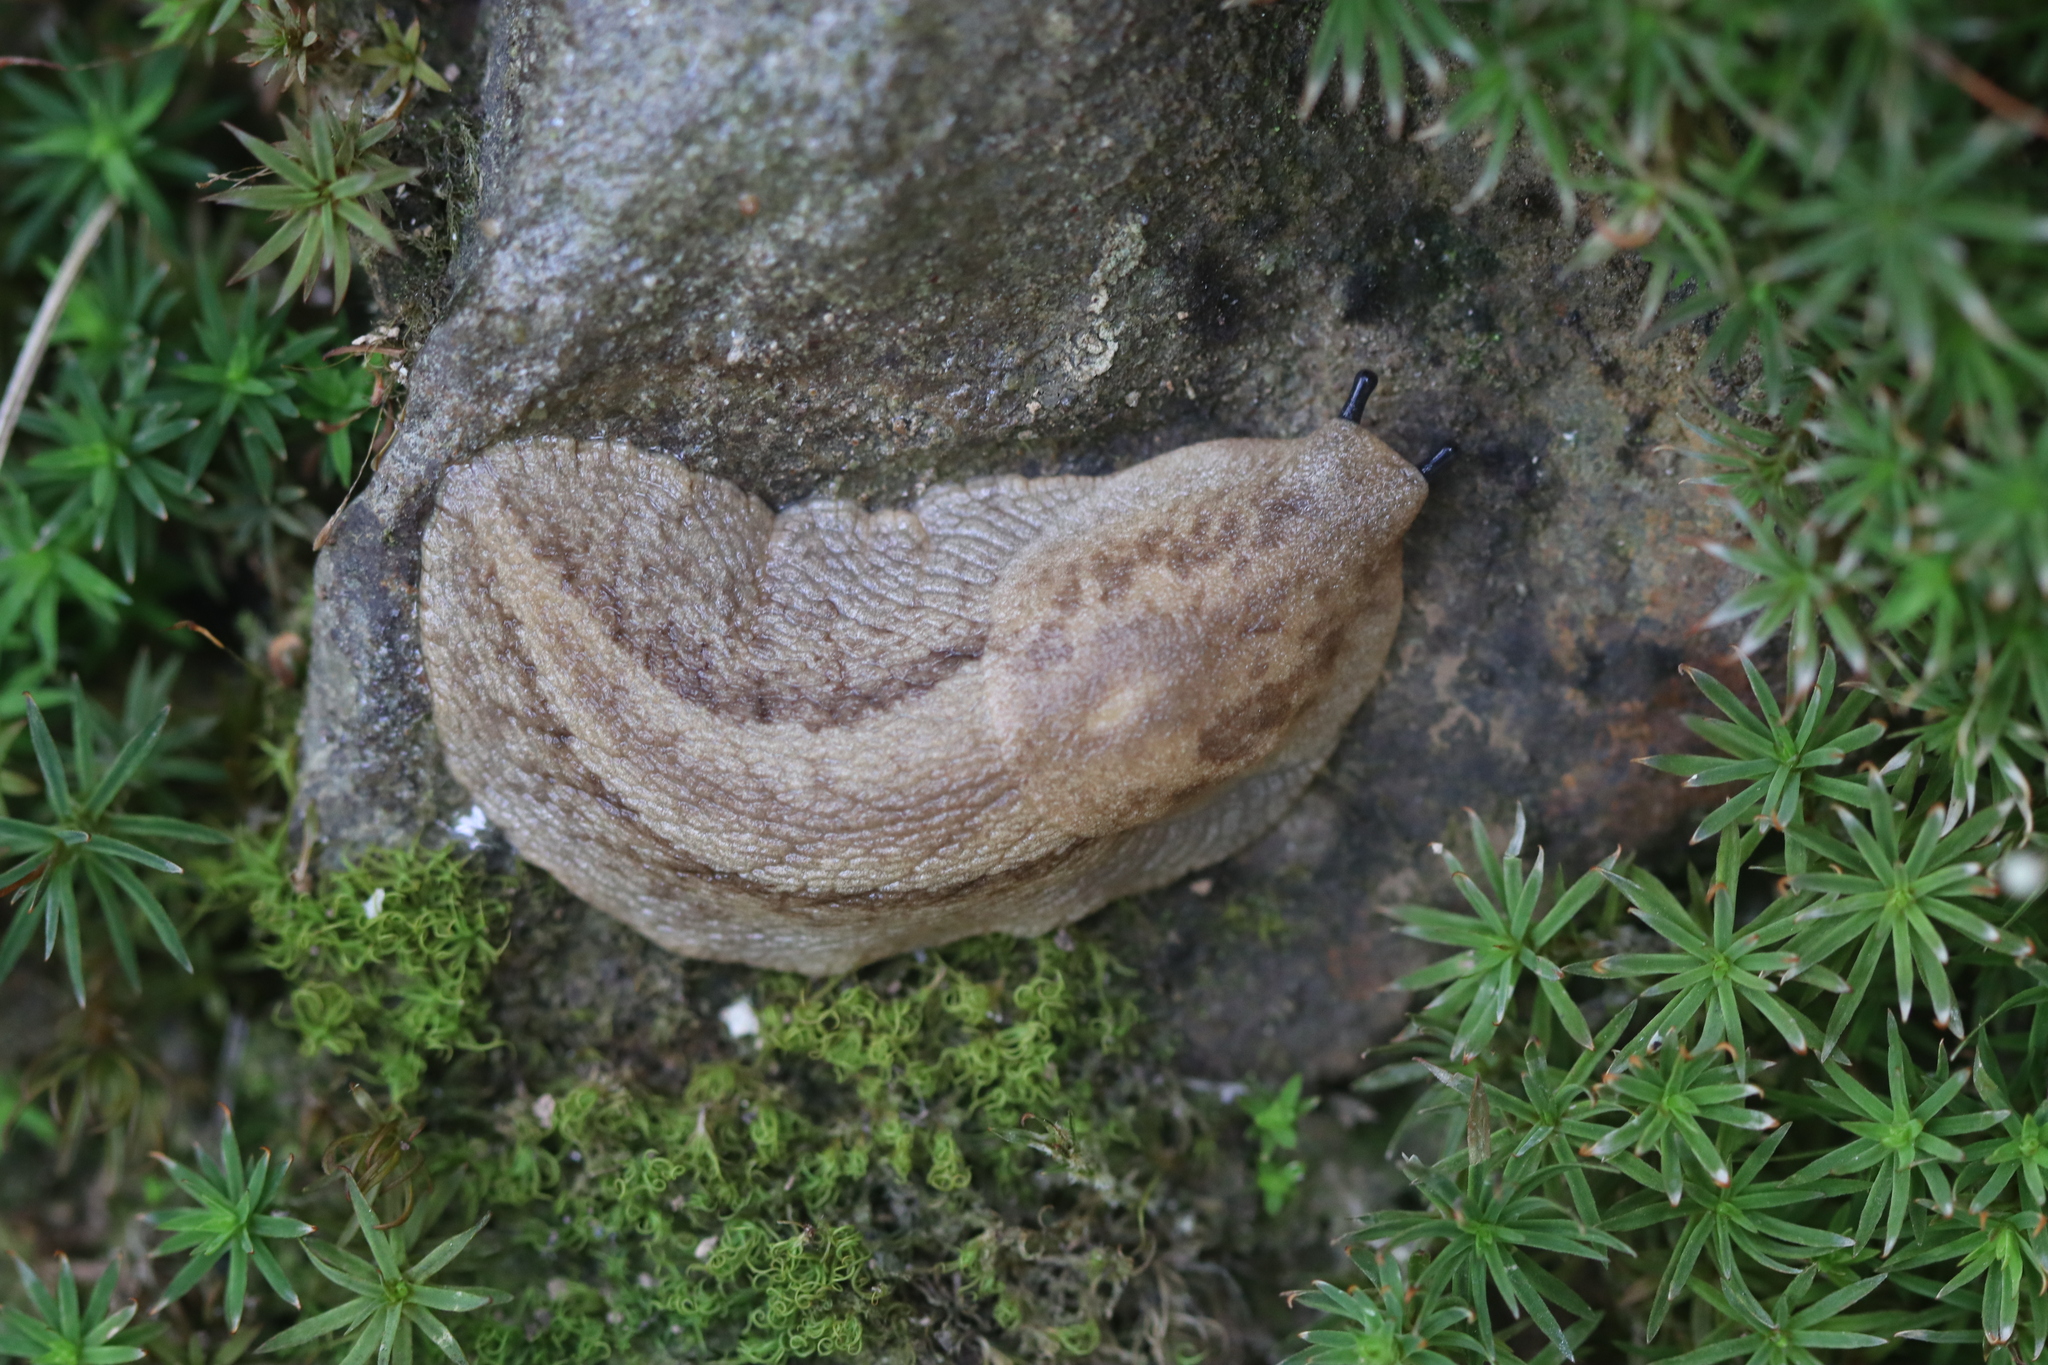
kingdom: Animalia
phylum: Mollusca
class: Gastropoda
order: Stylommatophora
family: Anadenidae
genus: Anadenus
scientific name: Anadenus altivagus
